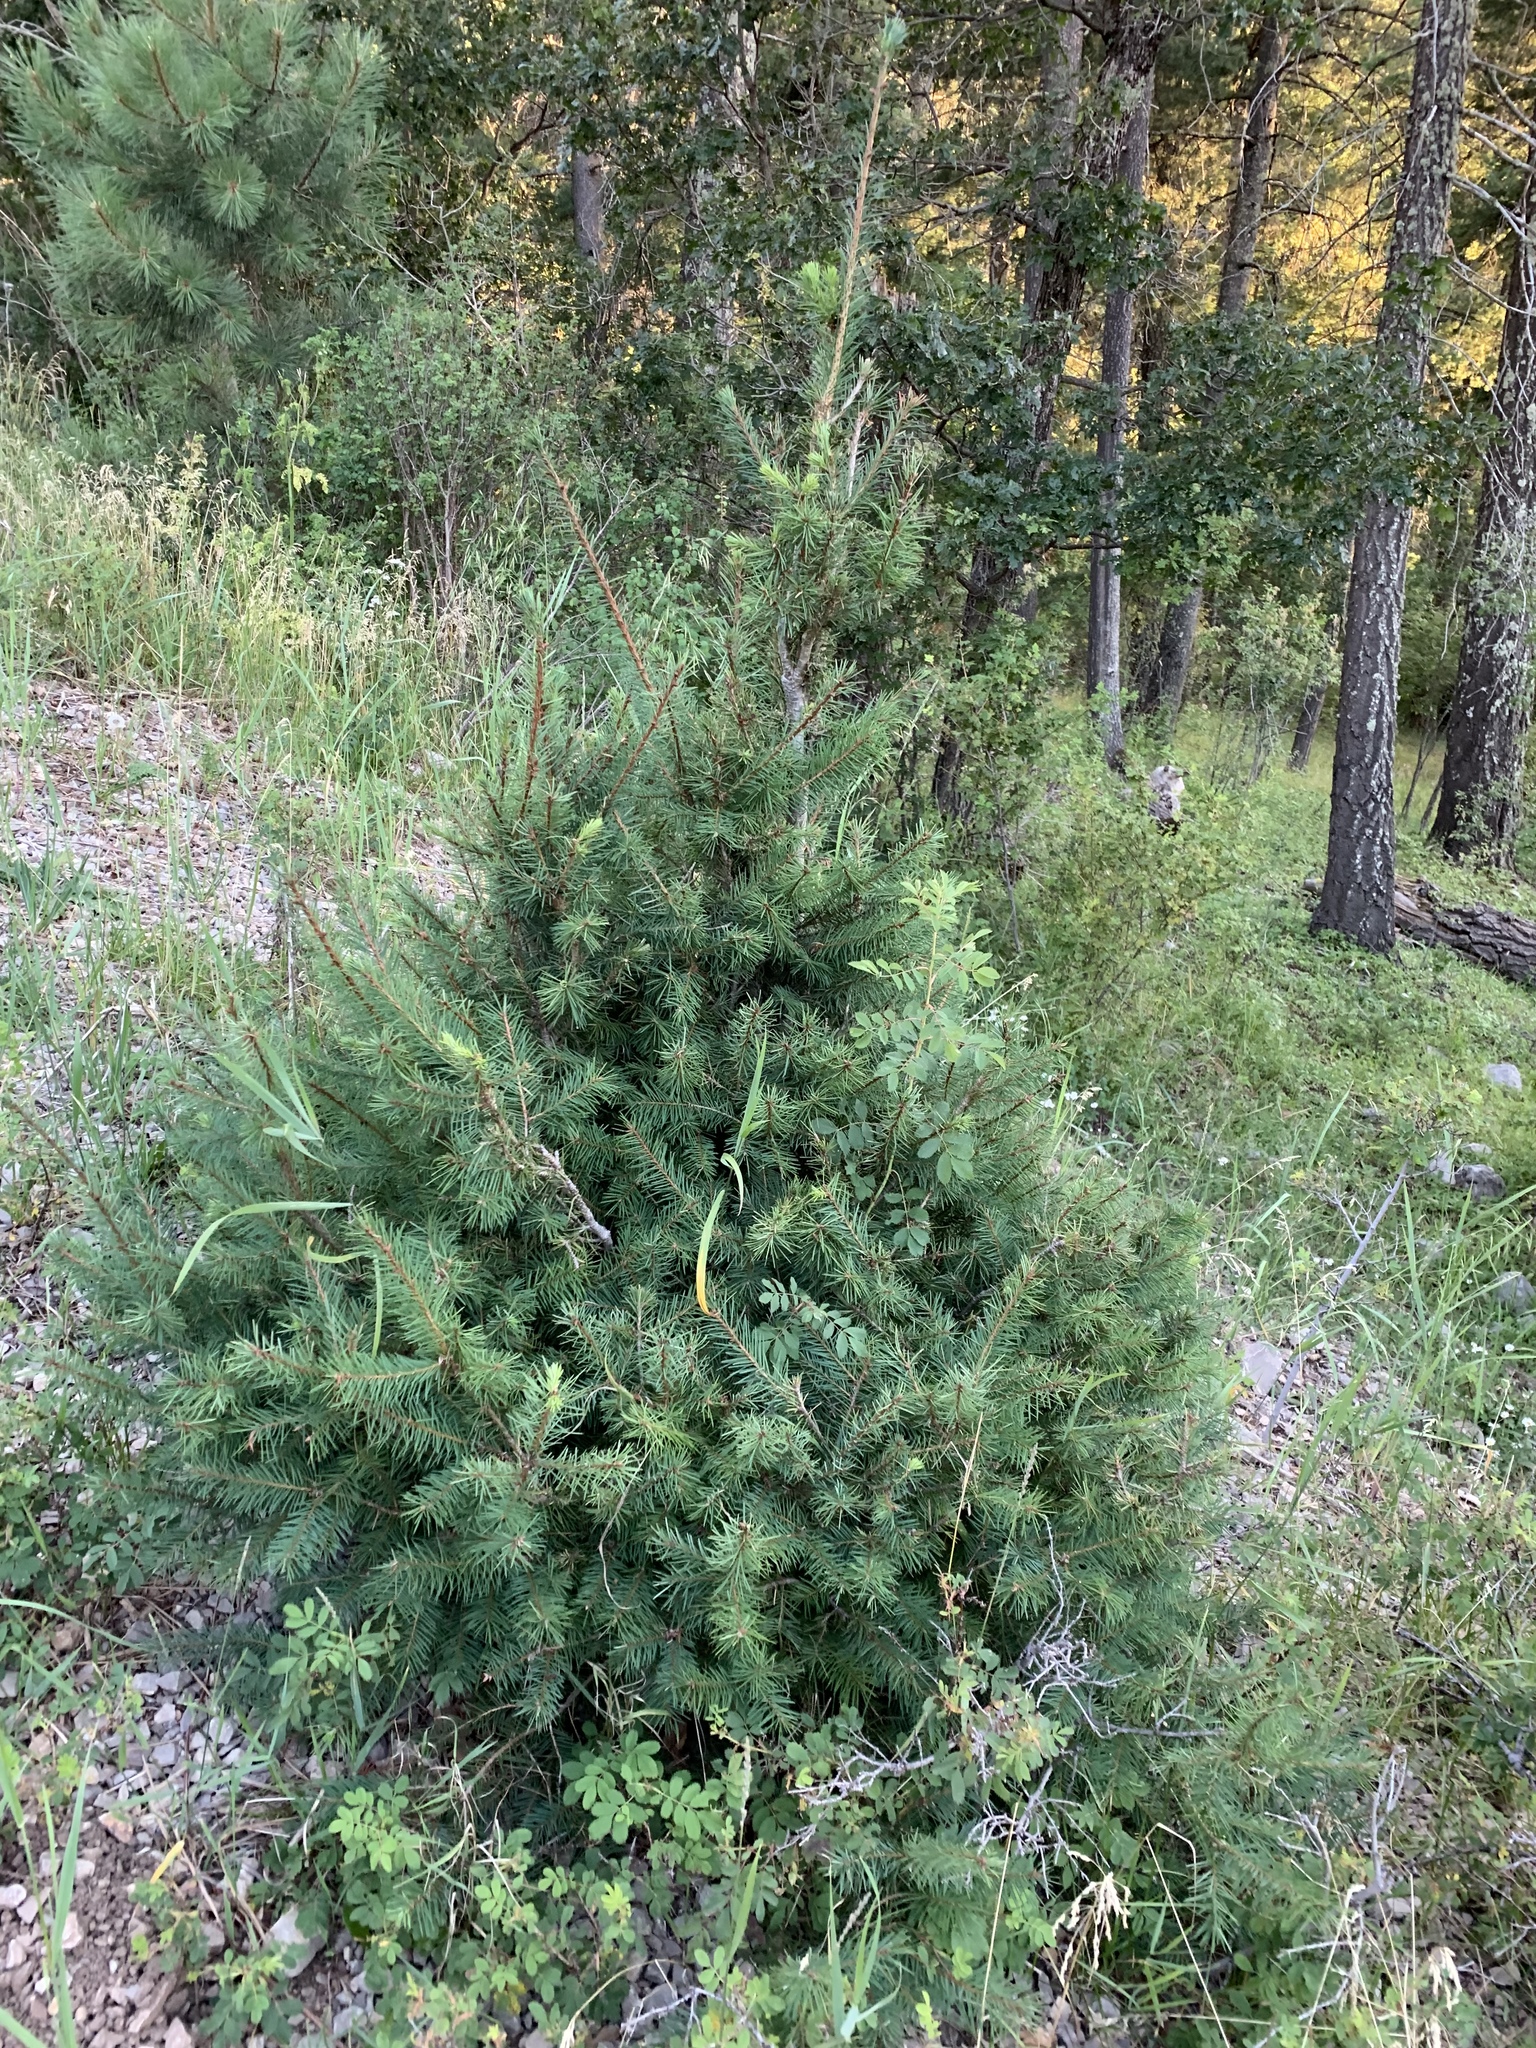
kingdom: Plantae
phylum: Tracheophyta
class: Pinopsida
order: Pinales
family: Pinaceae
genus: Pseudotsuga
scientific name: Pseudotsuga menziesii
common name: Douglas fir
